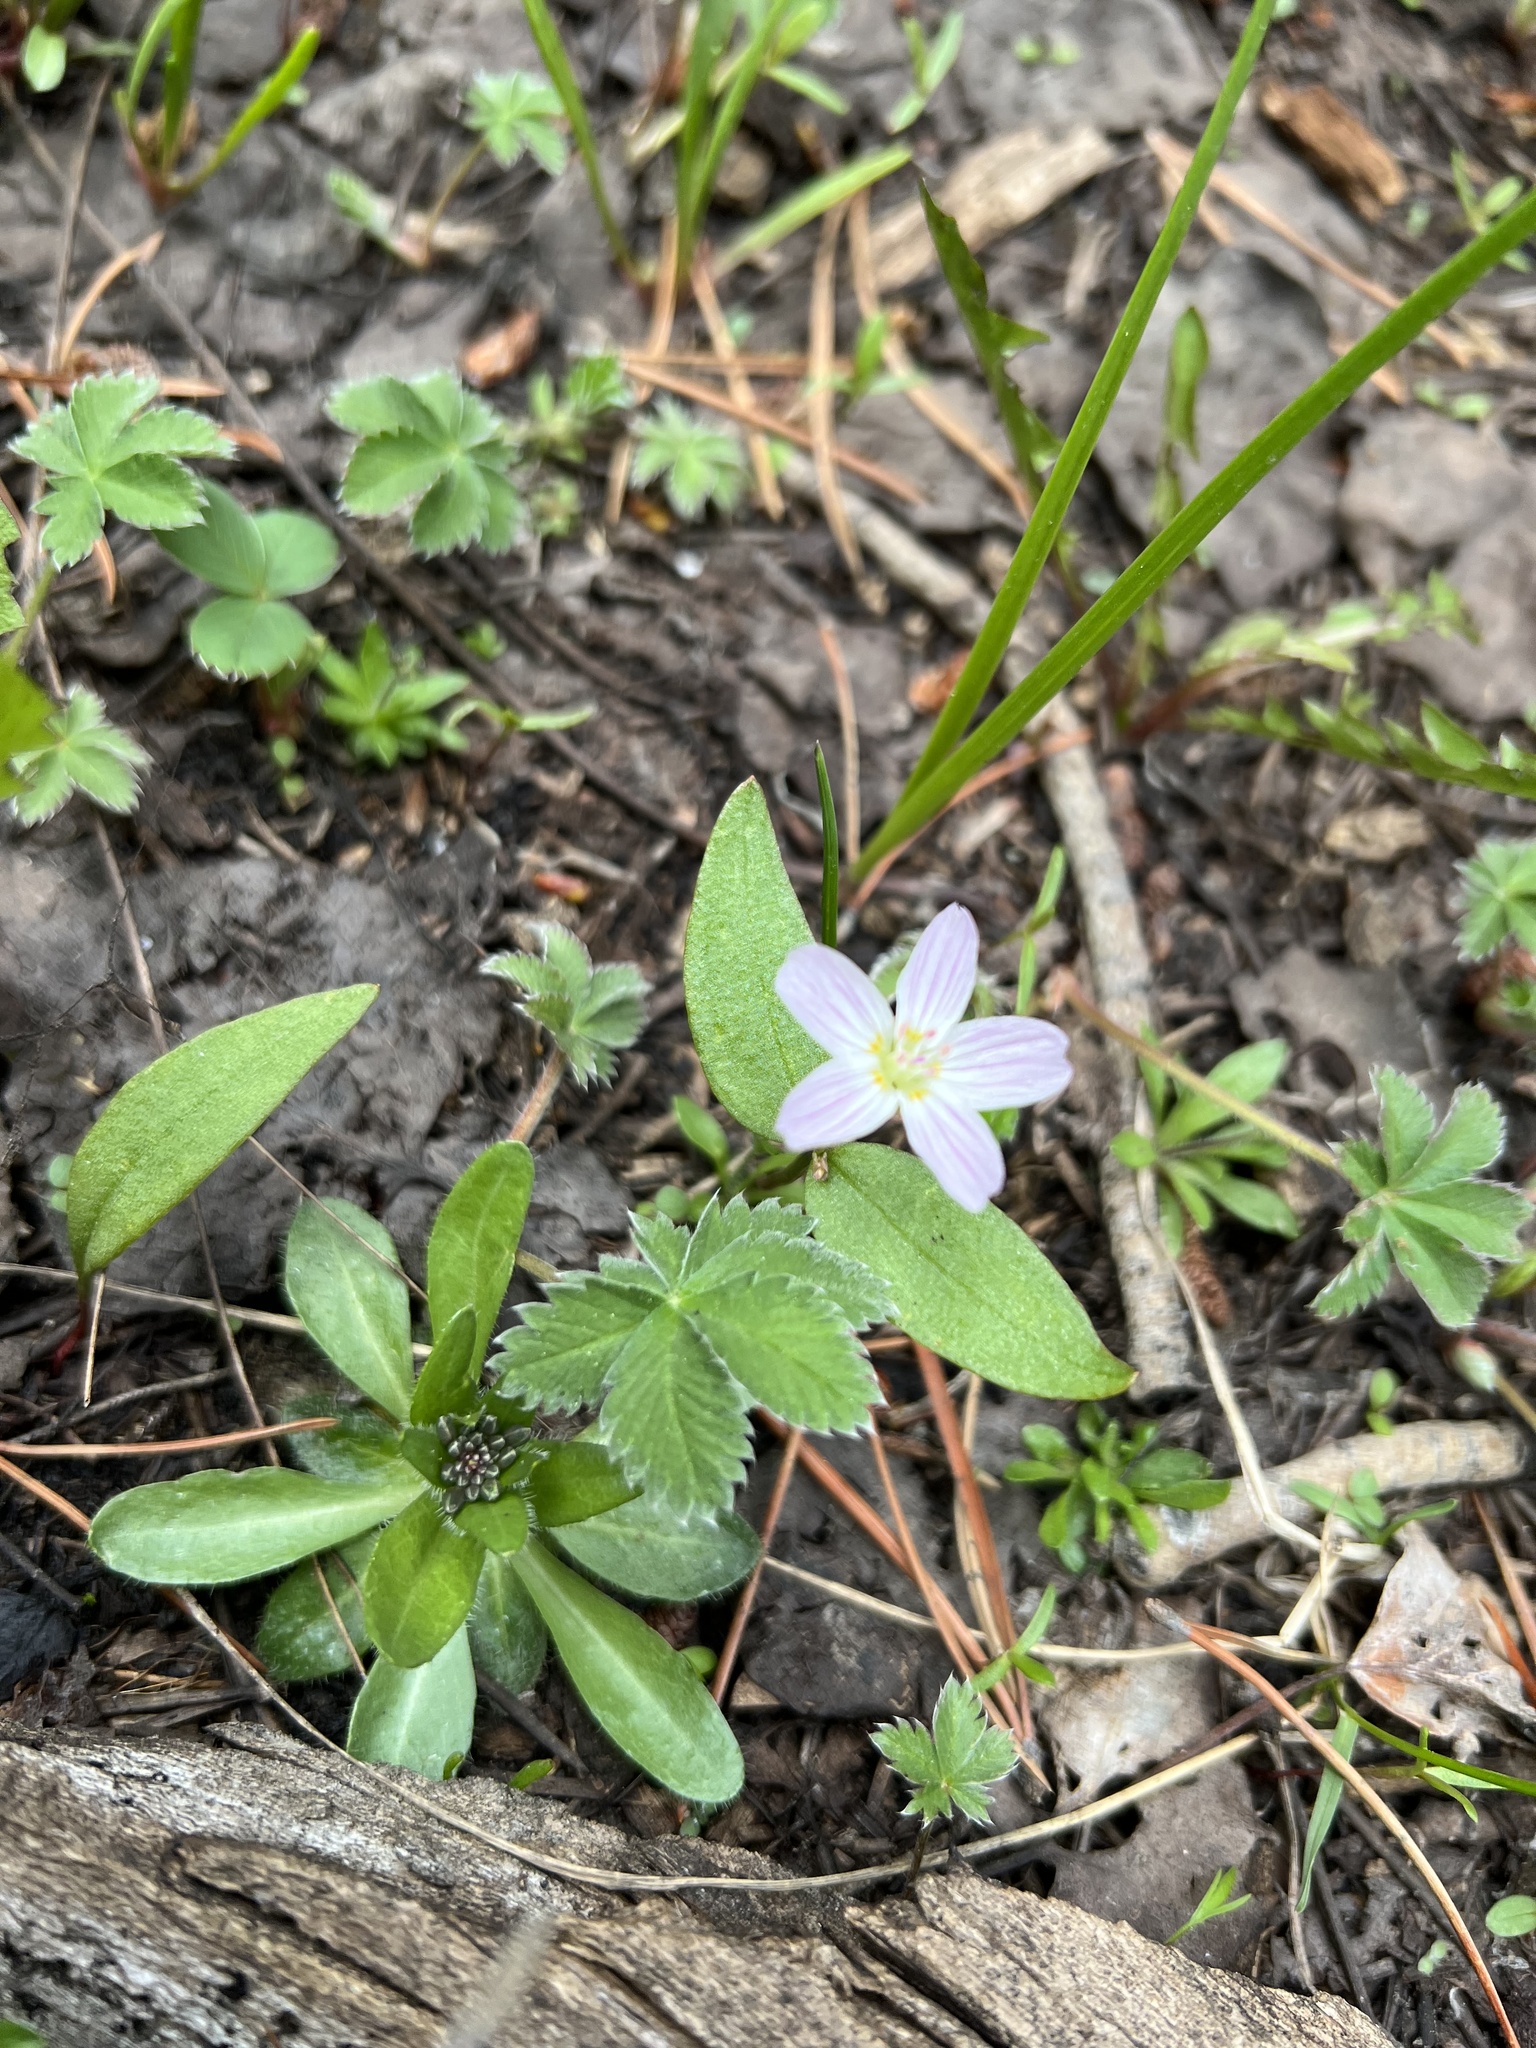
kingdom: Plantae
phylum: Tracheophyta
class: Magnoliopsida
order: Caryophyllales
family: Montiaceae
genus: Claytonia
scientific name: Claytonia lanceolata
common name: Western spring-beauty
